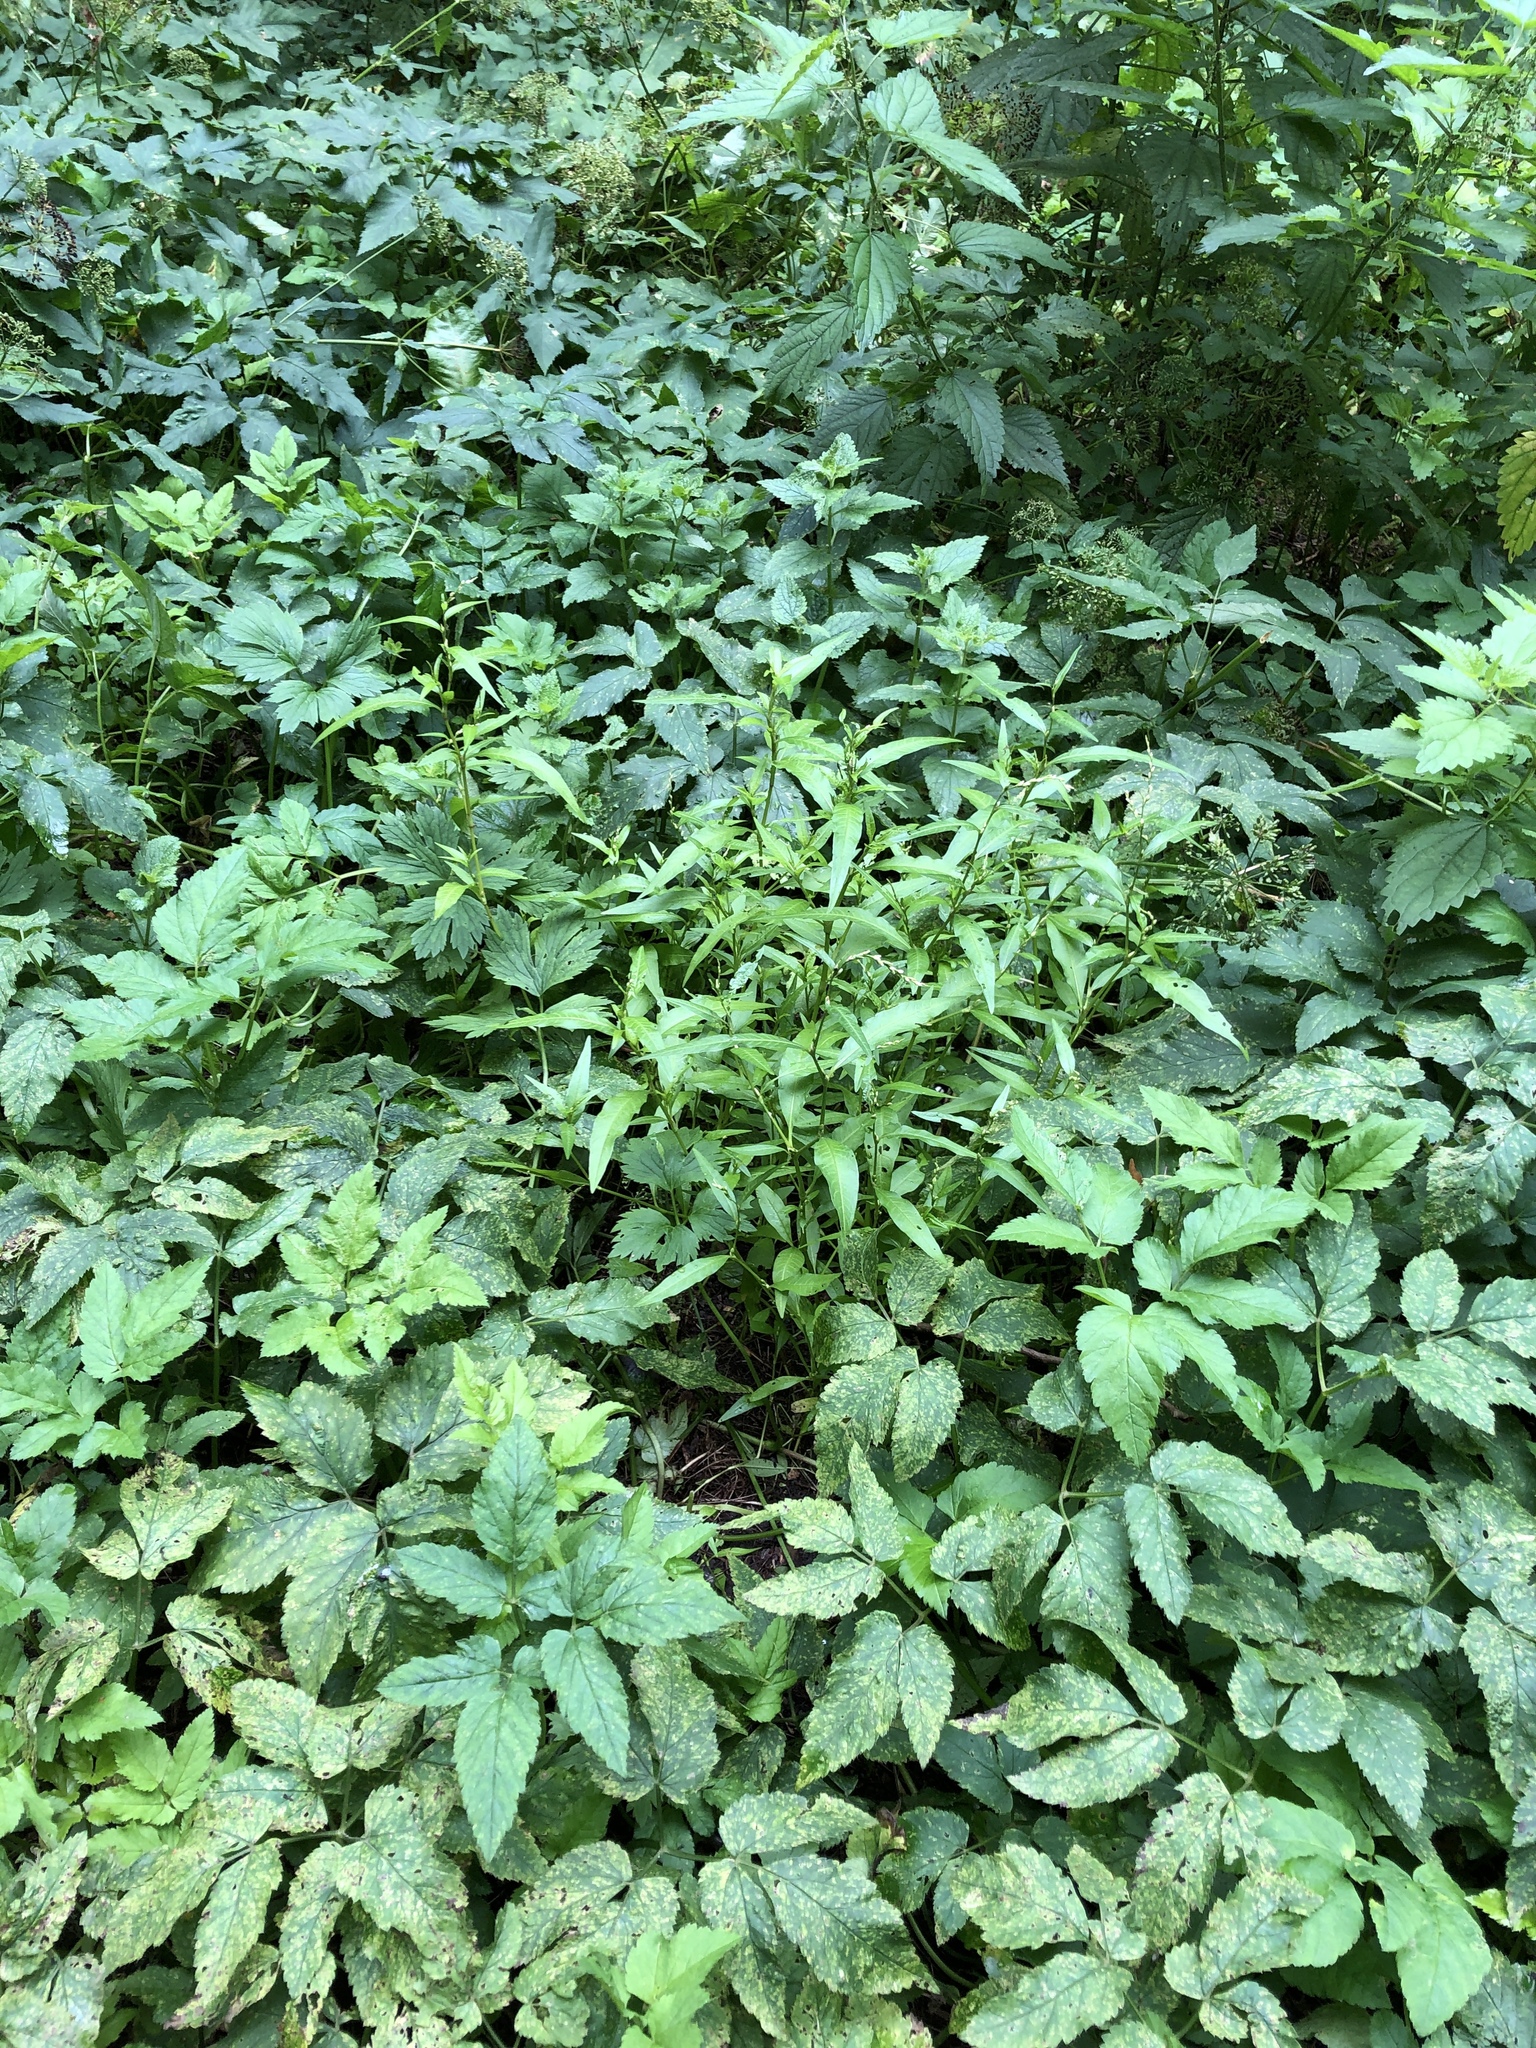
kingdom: Plantae
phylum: Tracheophyta
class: Magnoliopsida
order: Caryophyllales
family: Polygonaceae
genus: Persicaria
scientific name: Persicaria hydropiper
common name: Water-pepper
